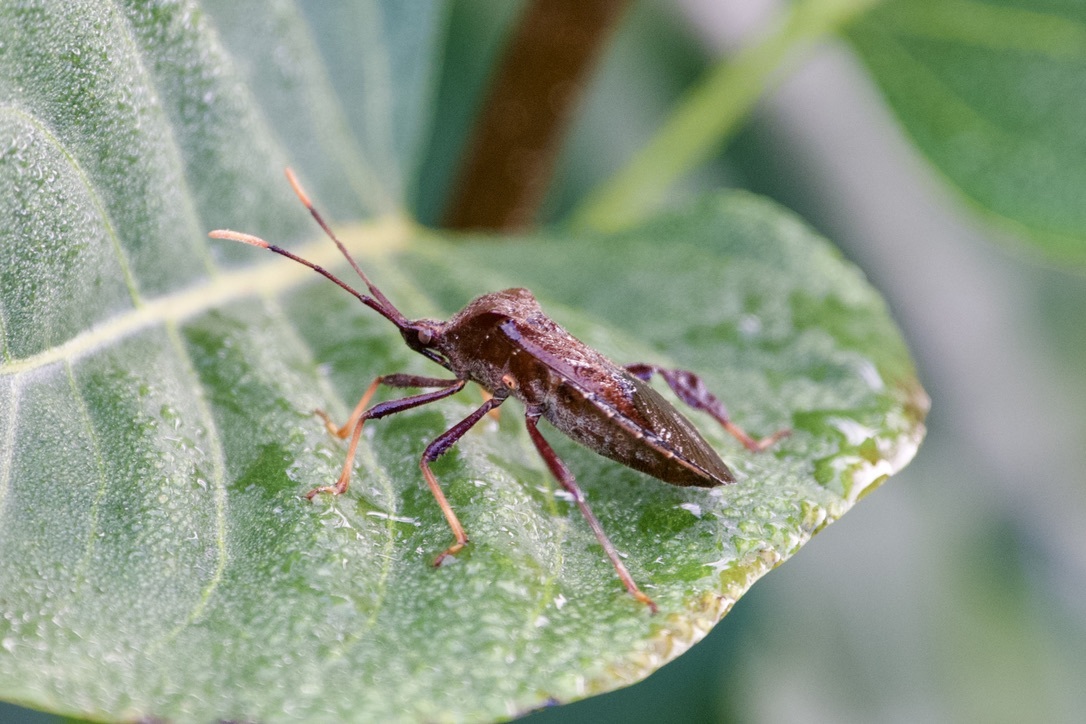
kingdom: Animalia
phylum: Arthropoda
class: Insecta
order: Hemiptera
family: Coreidae
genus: Acanthocephala
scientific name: Acanthocephala terminalis
